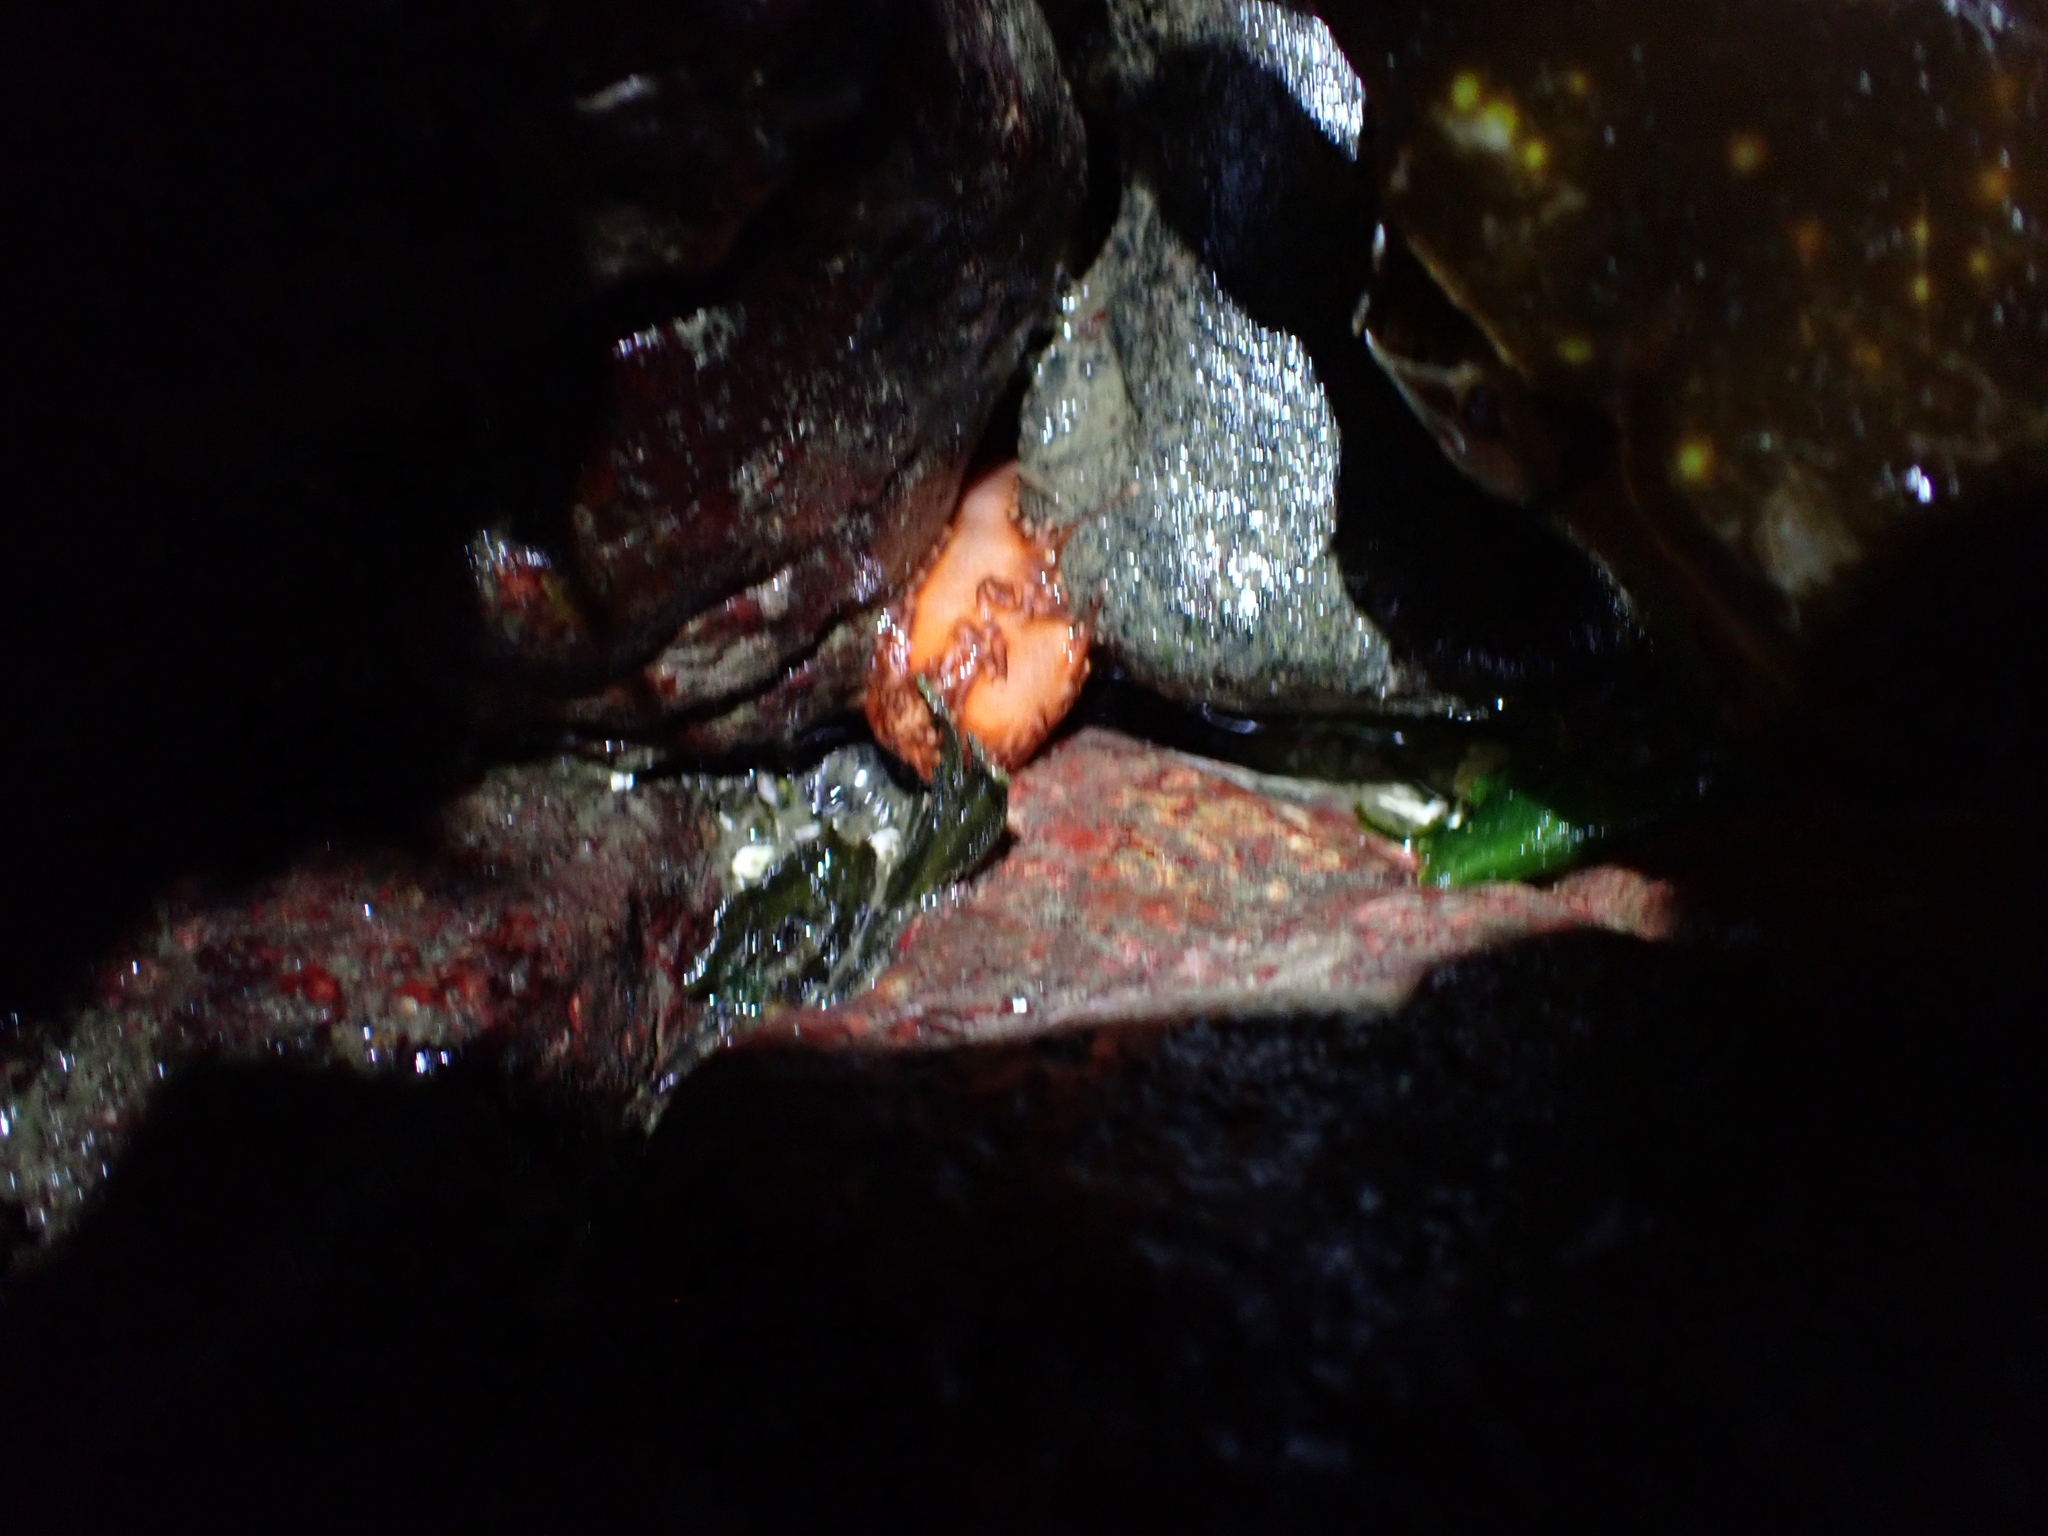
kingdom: Animalia
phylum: Echinodermata
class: Holothuroidea
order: Dendrochirotida
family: Cucumariidae
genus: Cucumaria
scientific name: Cucumaria miniata
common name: Orange sea cucumber
